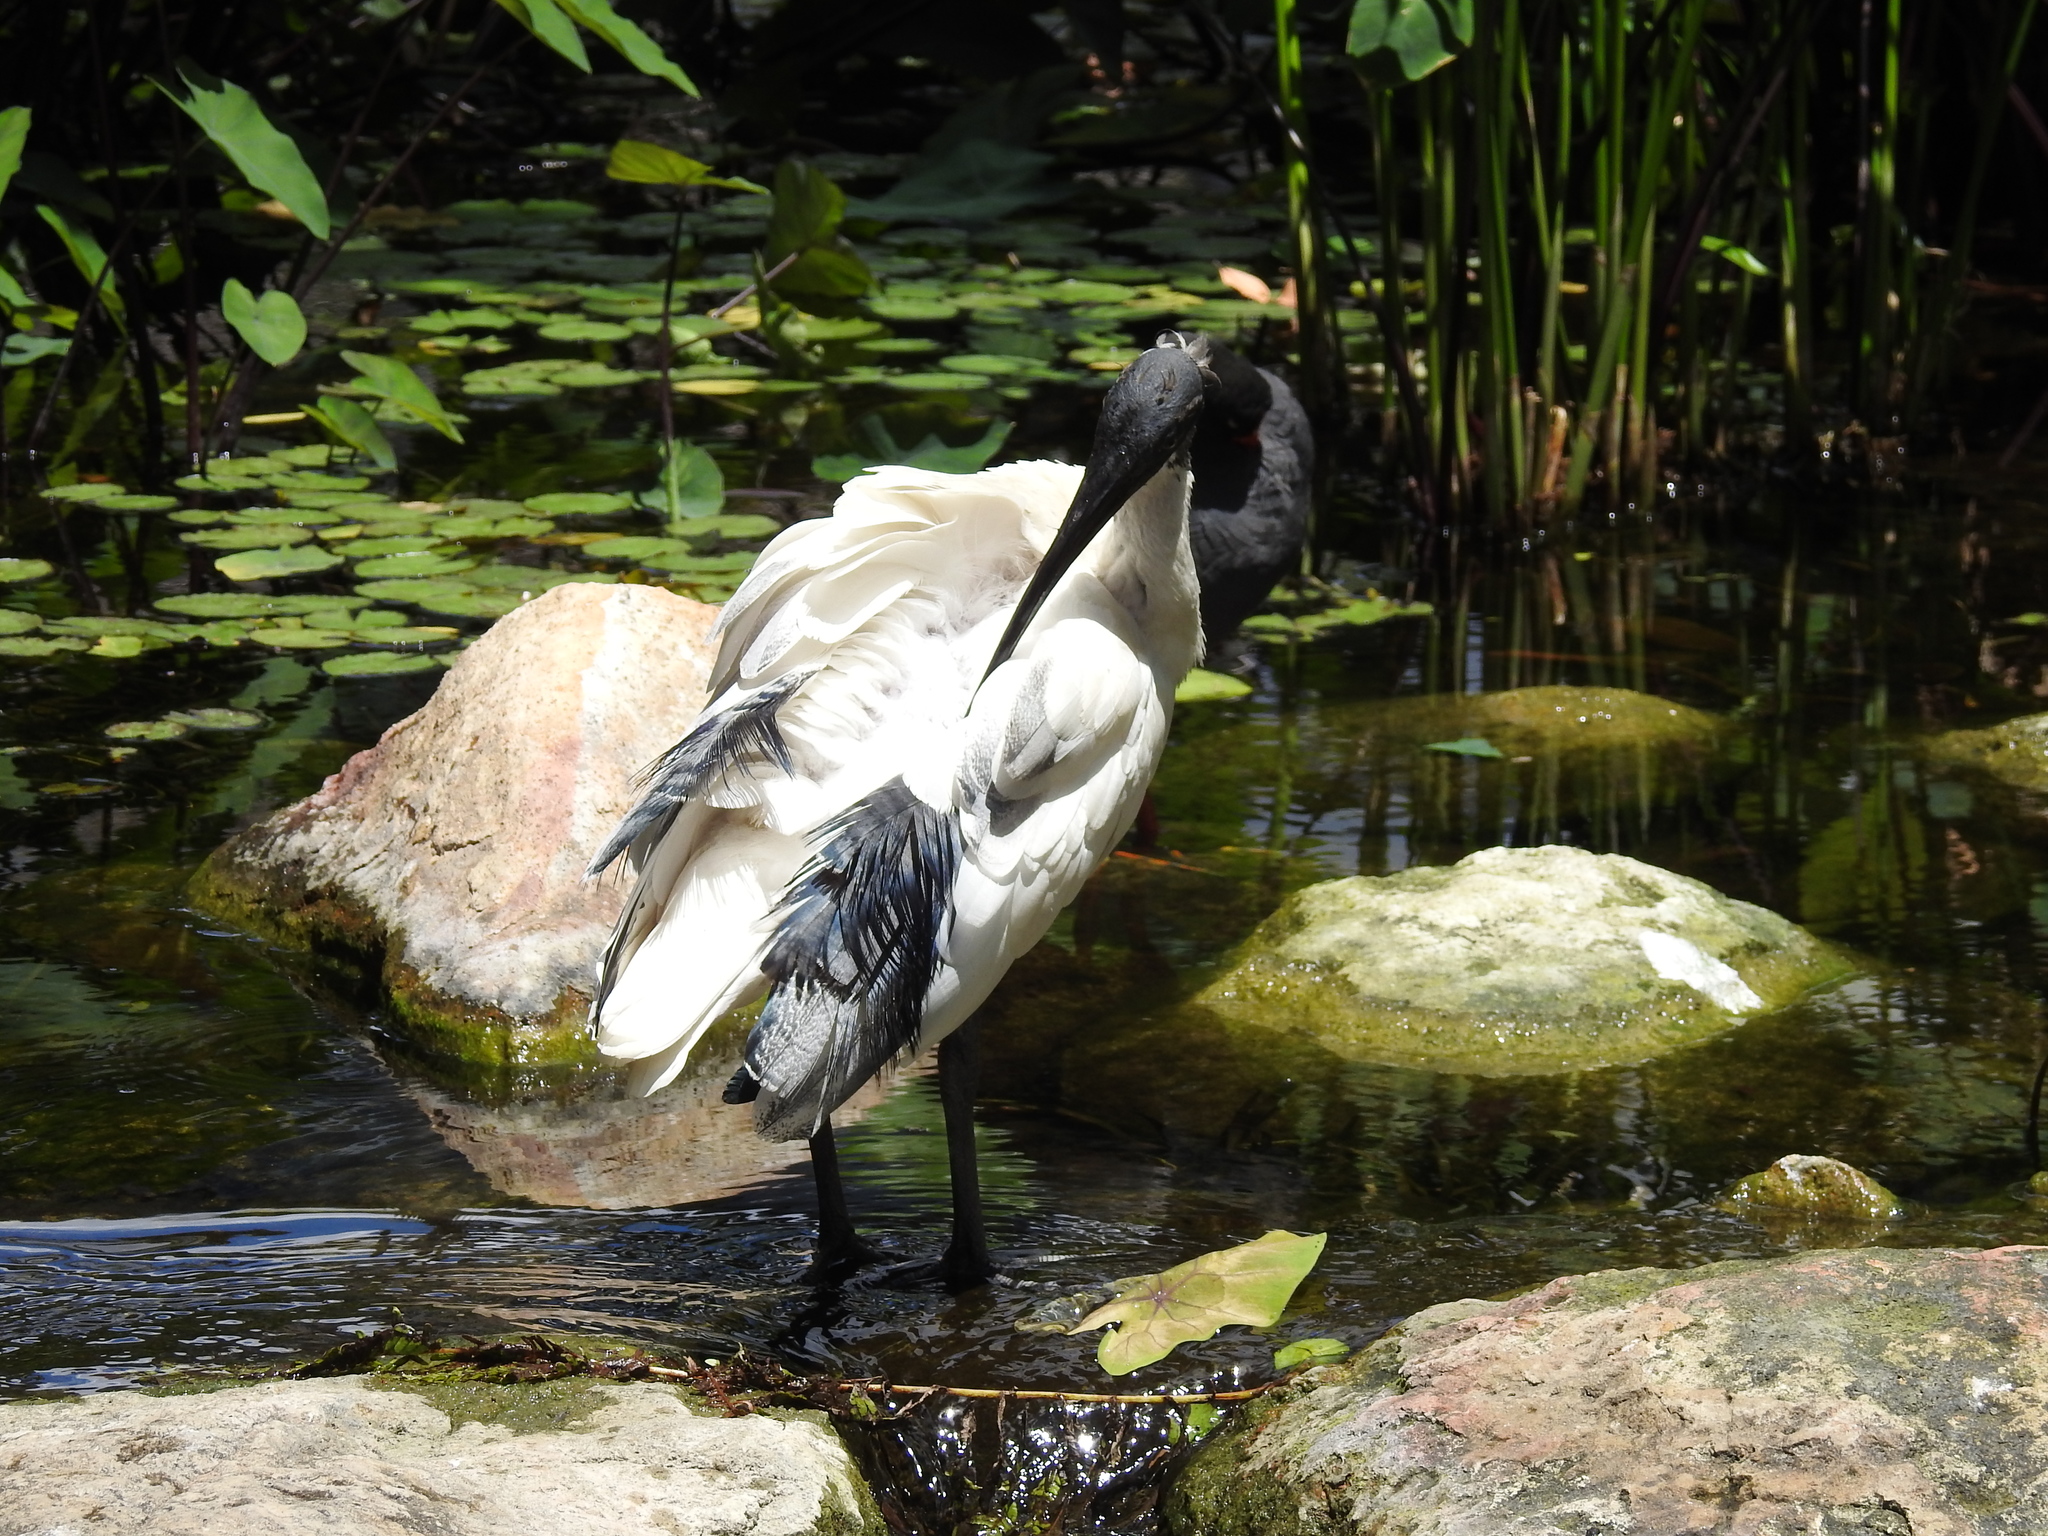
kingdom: Animalia
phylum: Chordata
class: Aves
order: Pelecaniformes
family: Threskiornithidae
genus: Threskiornis
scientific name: Threskiornis molucca
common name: Australian white ibis
